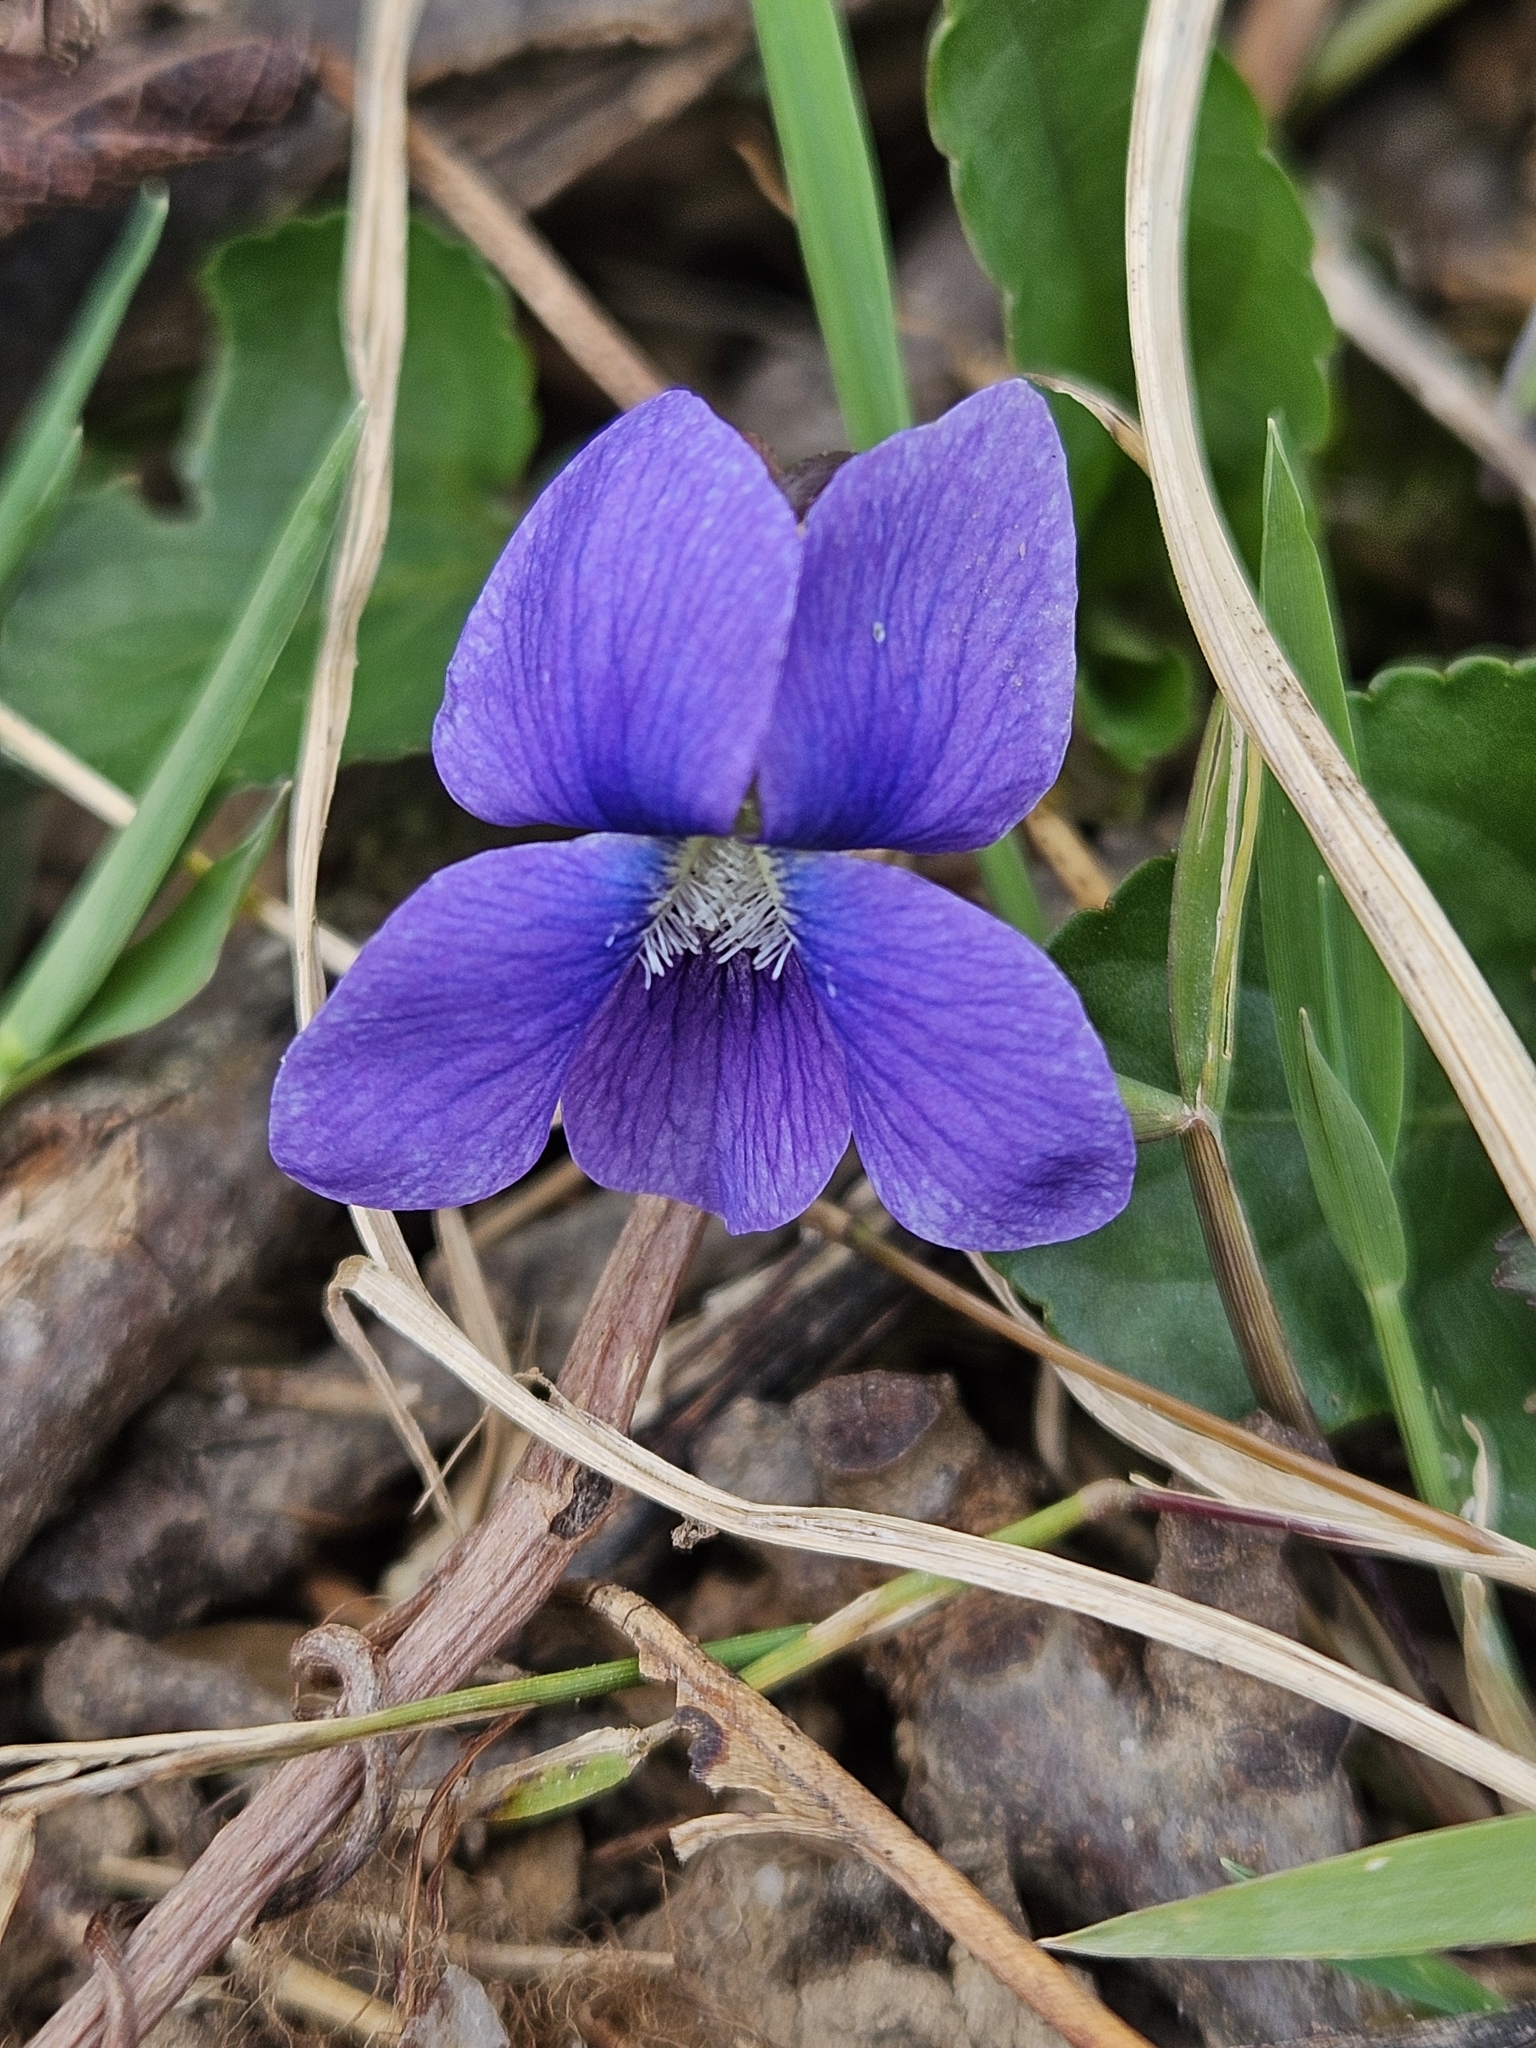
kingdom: Plantae
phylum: Tracheophyta
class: Magnoliopsida
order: Malpighiales
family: Violaceae
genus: Viola
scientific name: Viola sororia
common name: Dooryard violet
